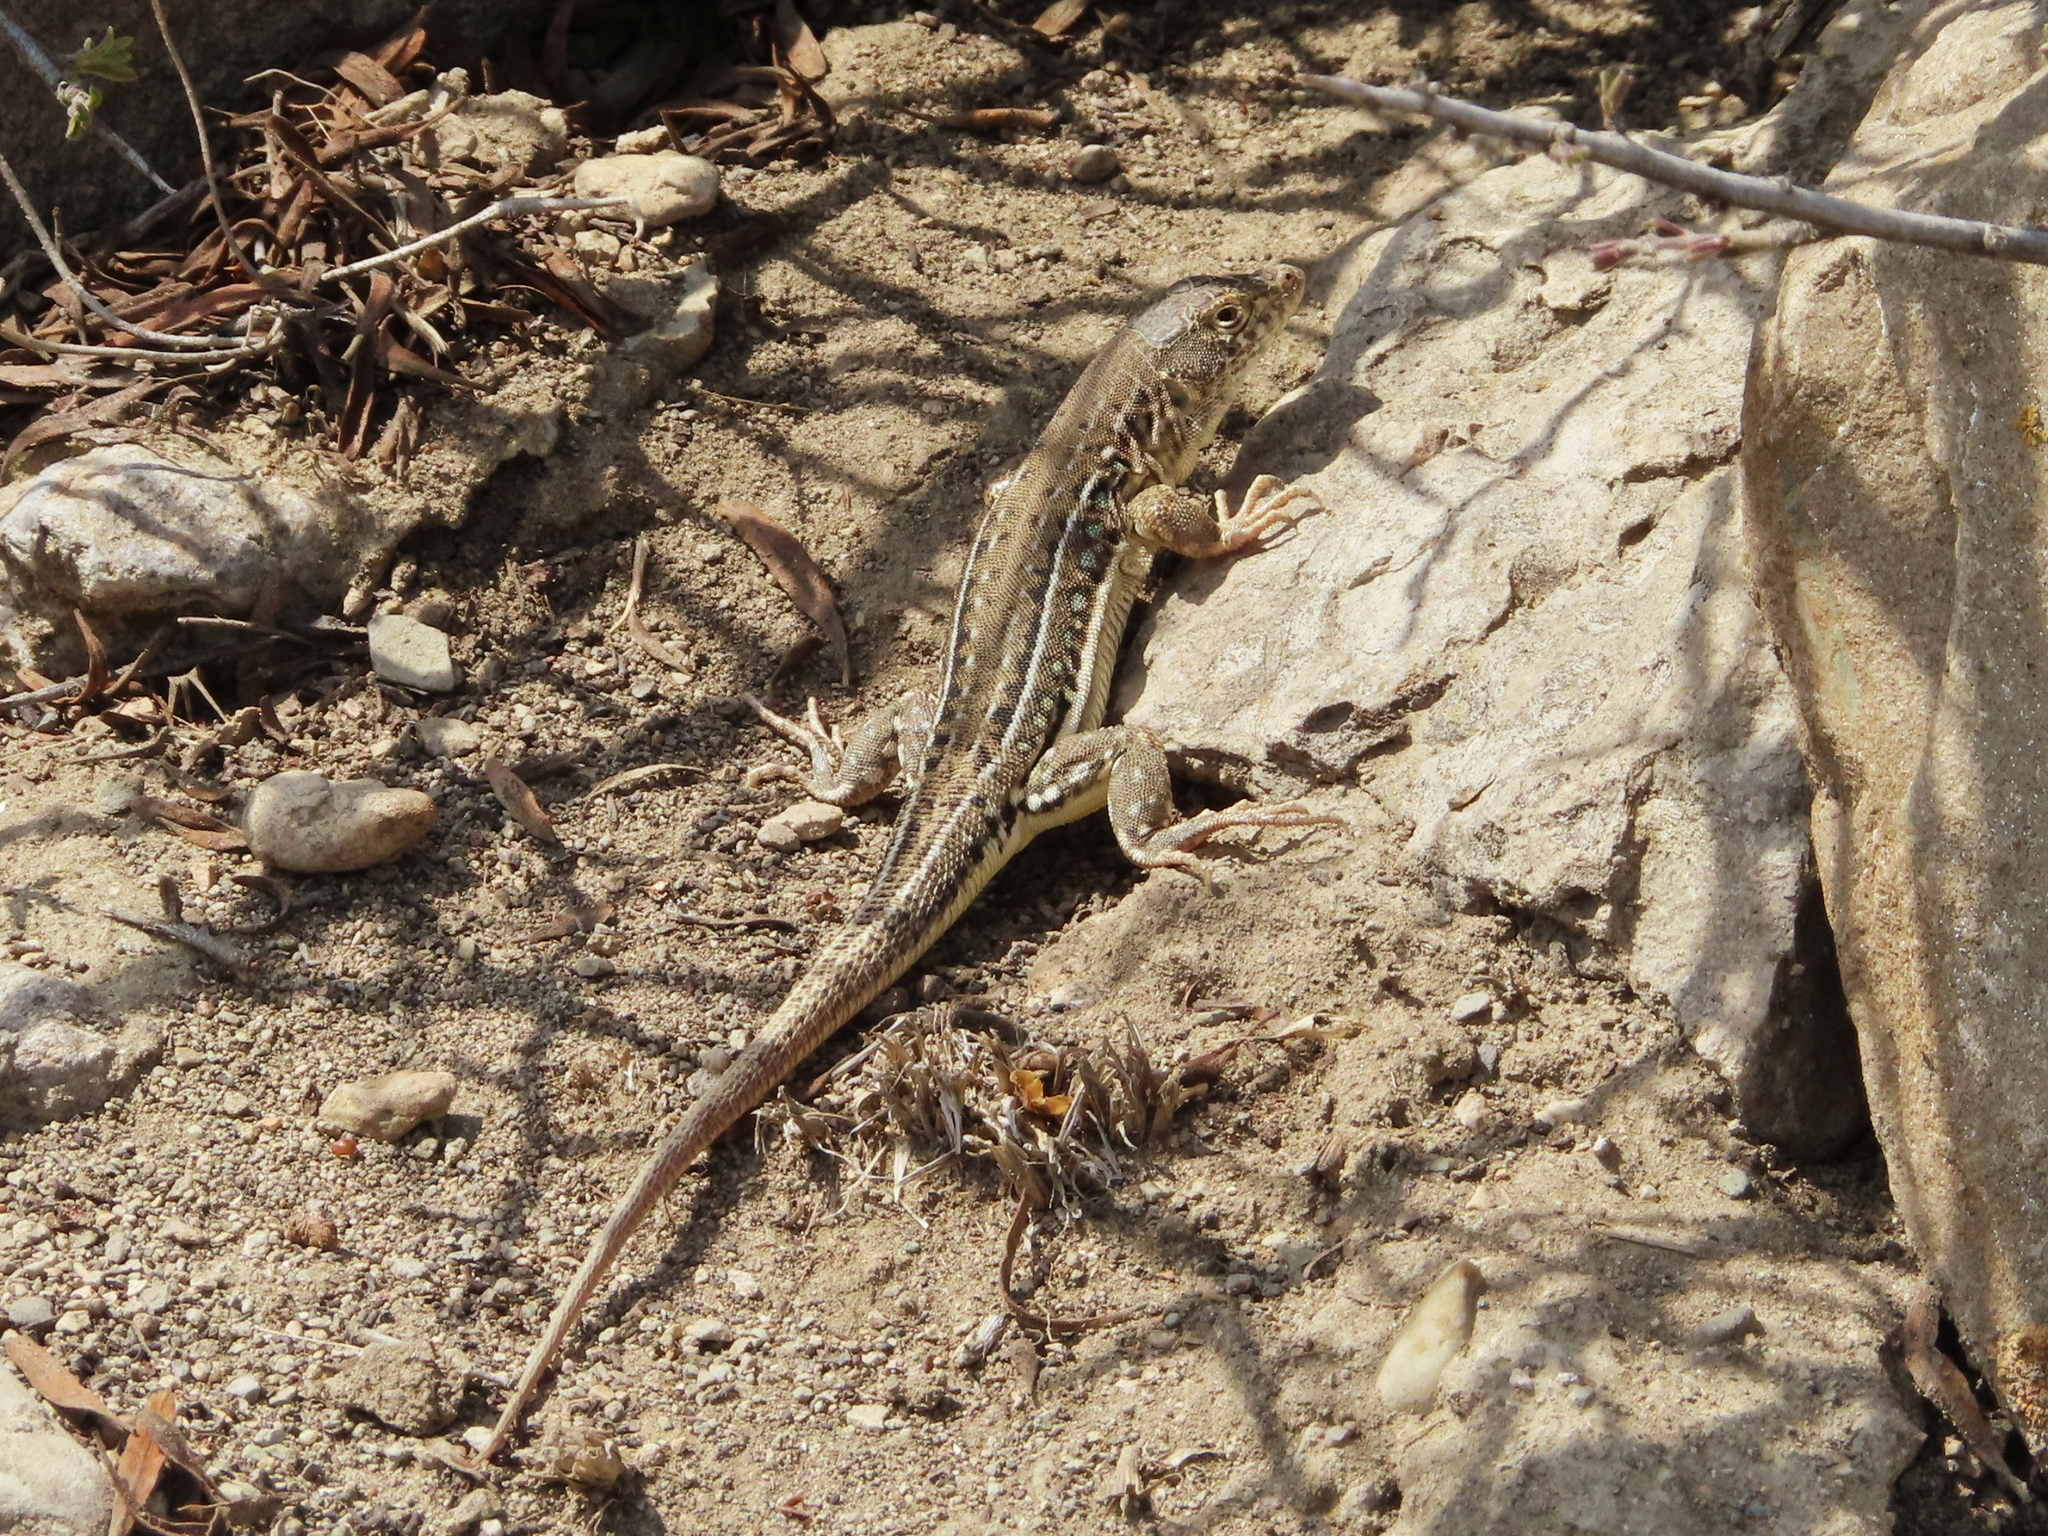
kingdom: Animalia
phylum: Chordata
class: Squamata
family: Lacertidae
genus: Eremias
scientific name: Eremias strauchi
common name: Strauch's racerunner
